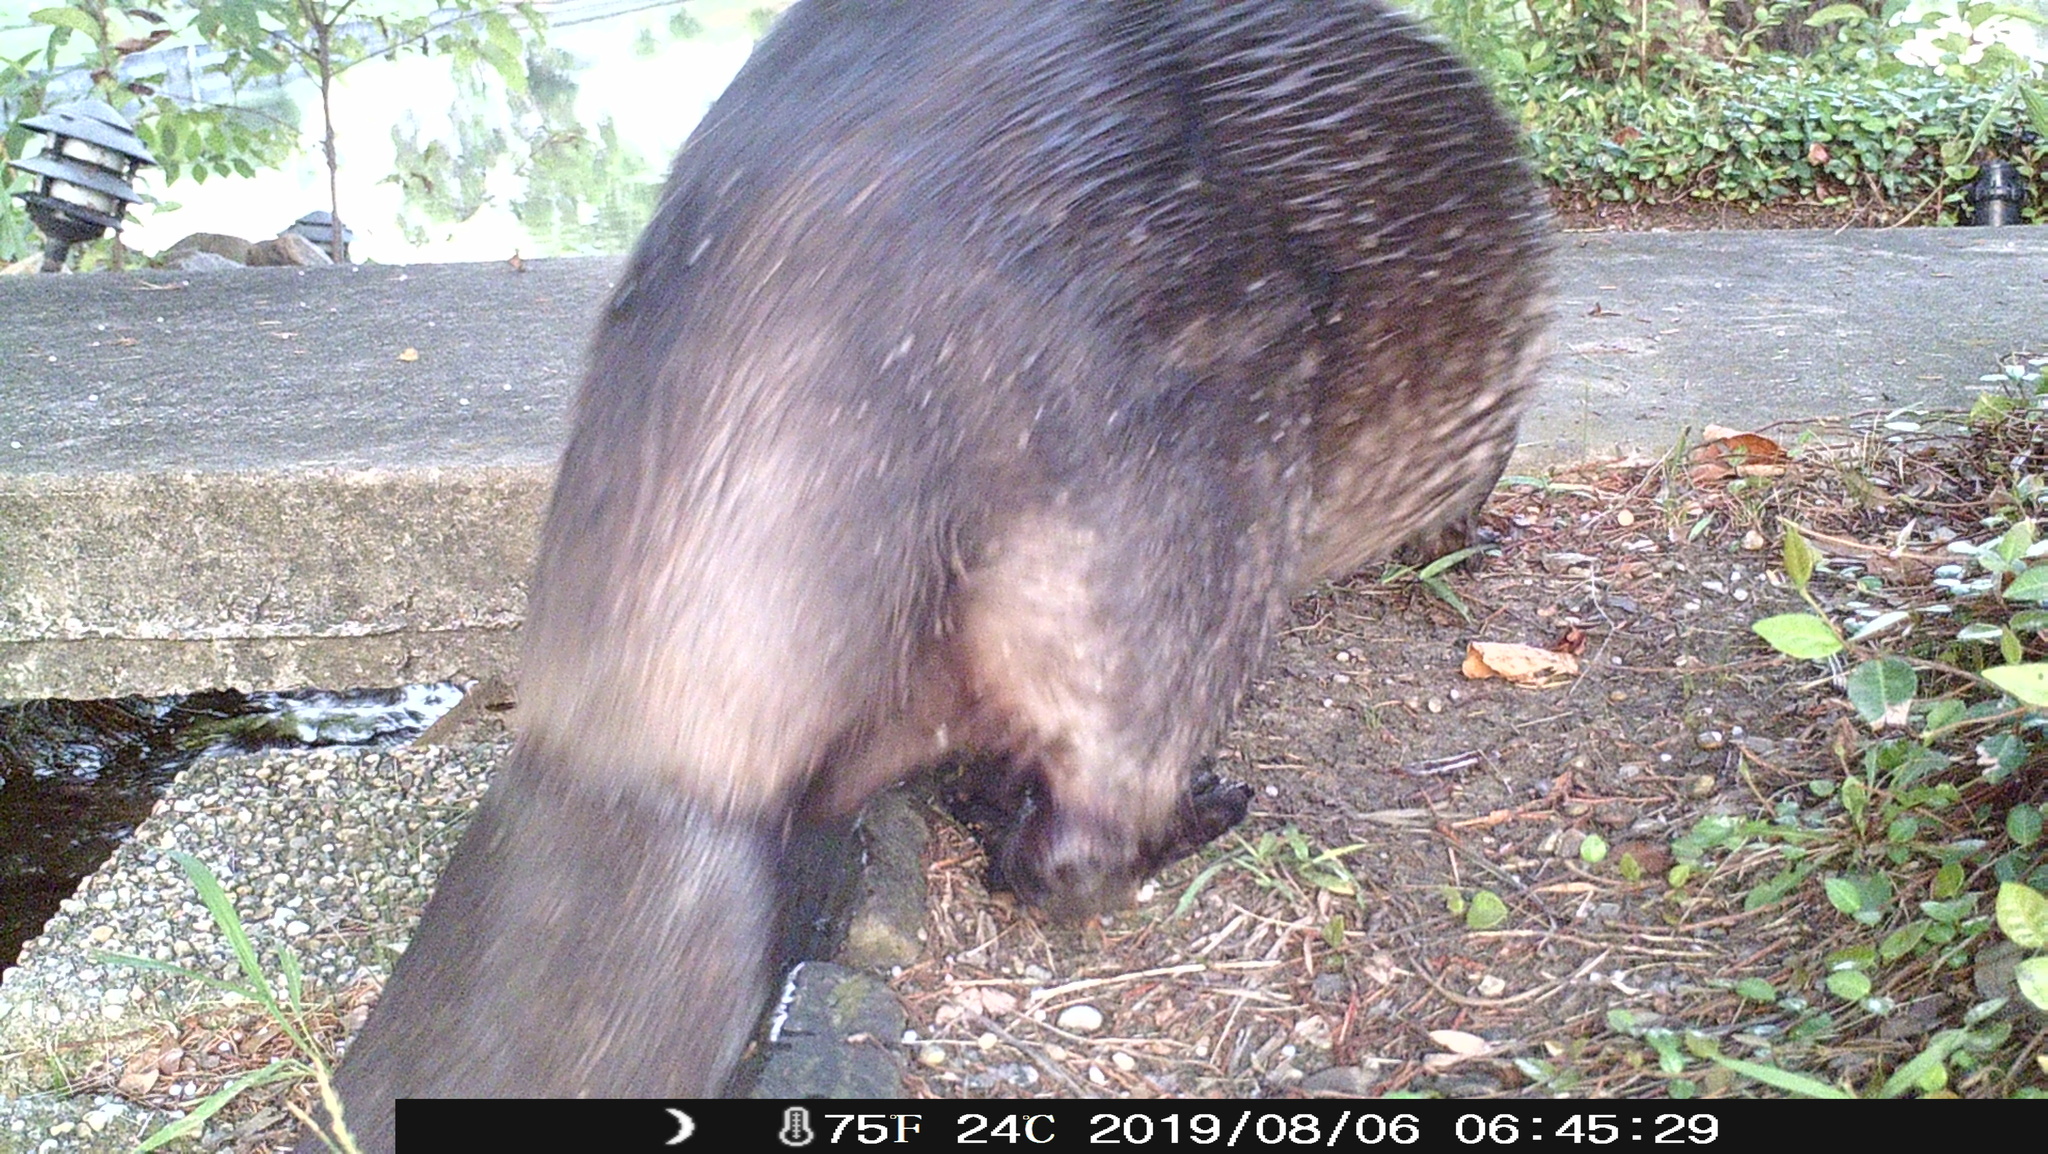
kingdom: Animalia
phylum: Chordata
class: Mammalia
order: Rodentia
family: Castoridae
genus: Castor
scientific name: Castor canadensis
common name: American beaver
